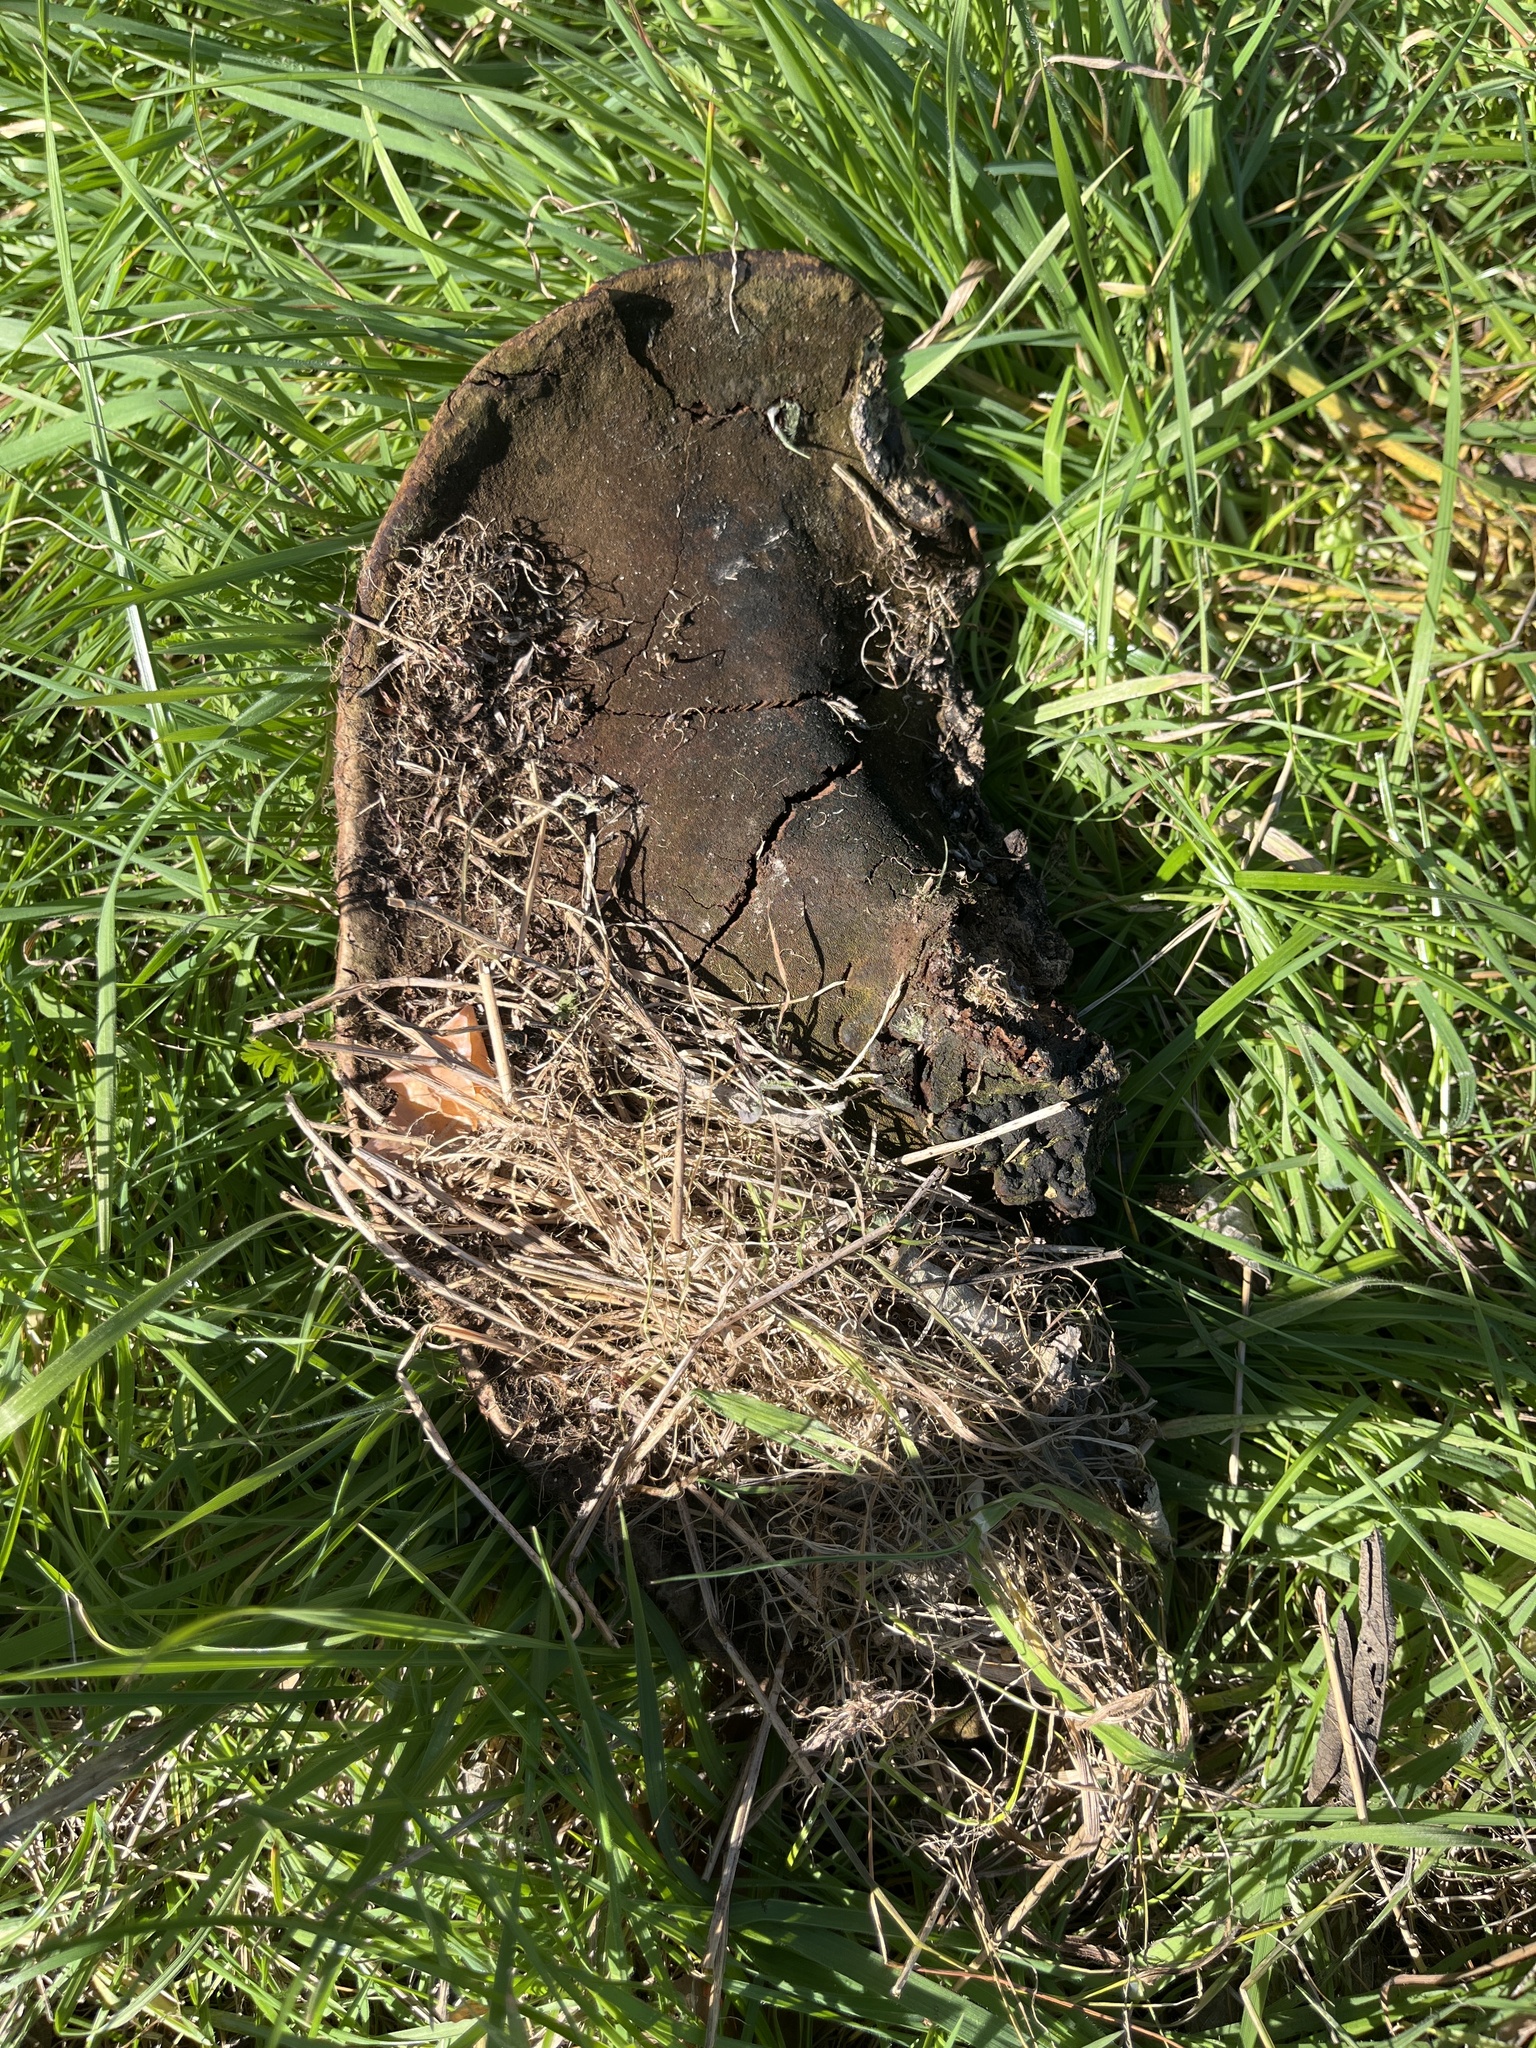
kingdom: Fungi
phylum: Basidiomycota
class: Agaricomycetes
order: Polyporales
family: Polyporaceae
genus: Ganoderma
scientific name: Ganoderma resinaceum
